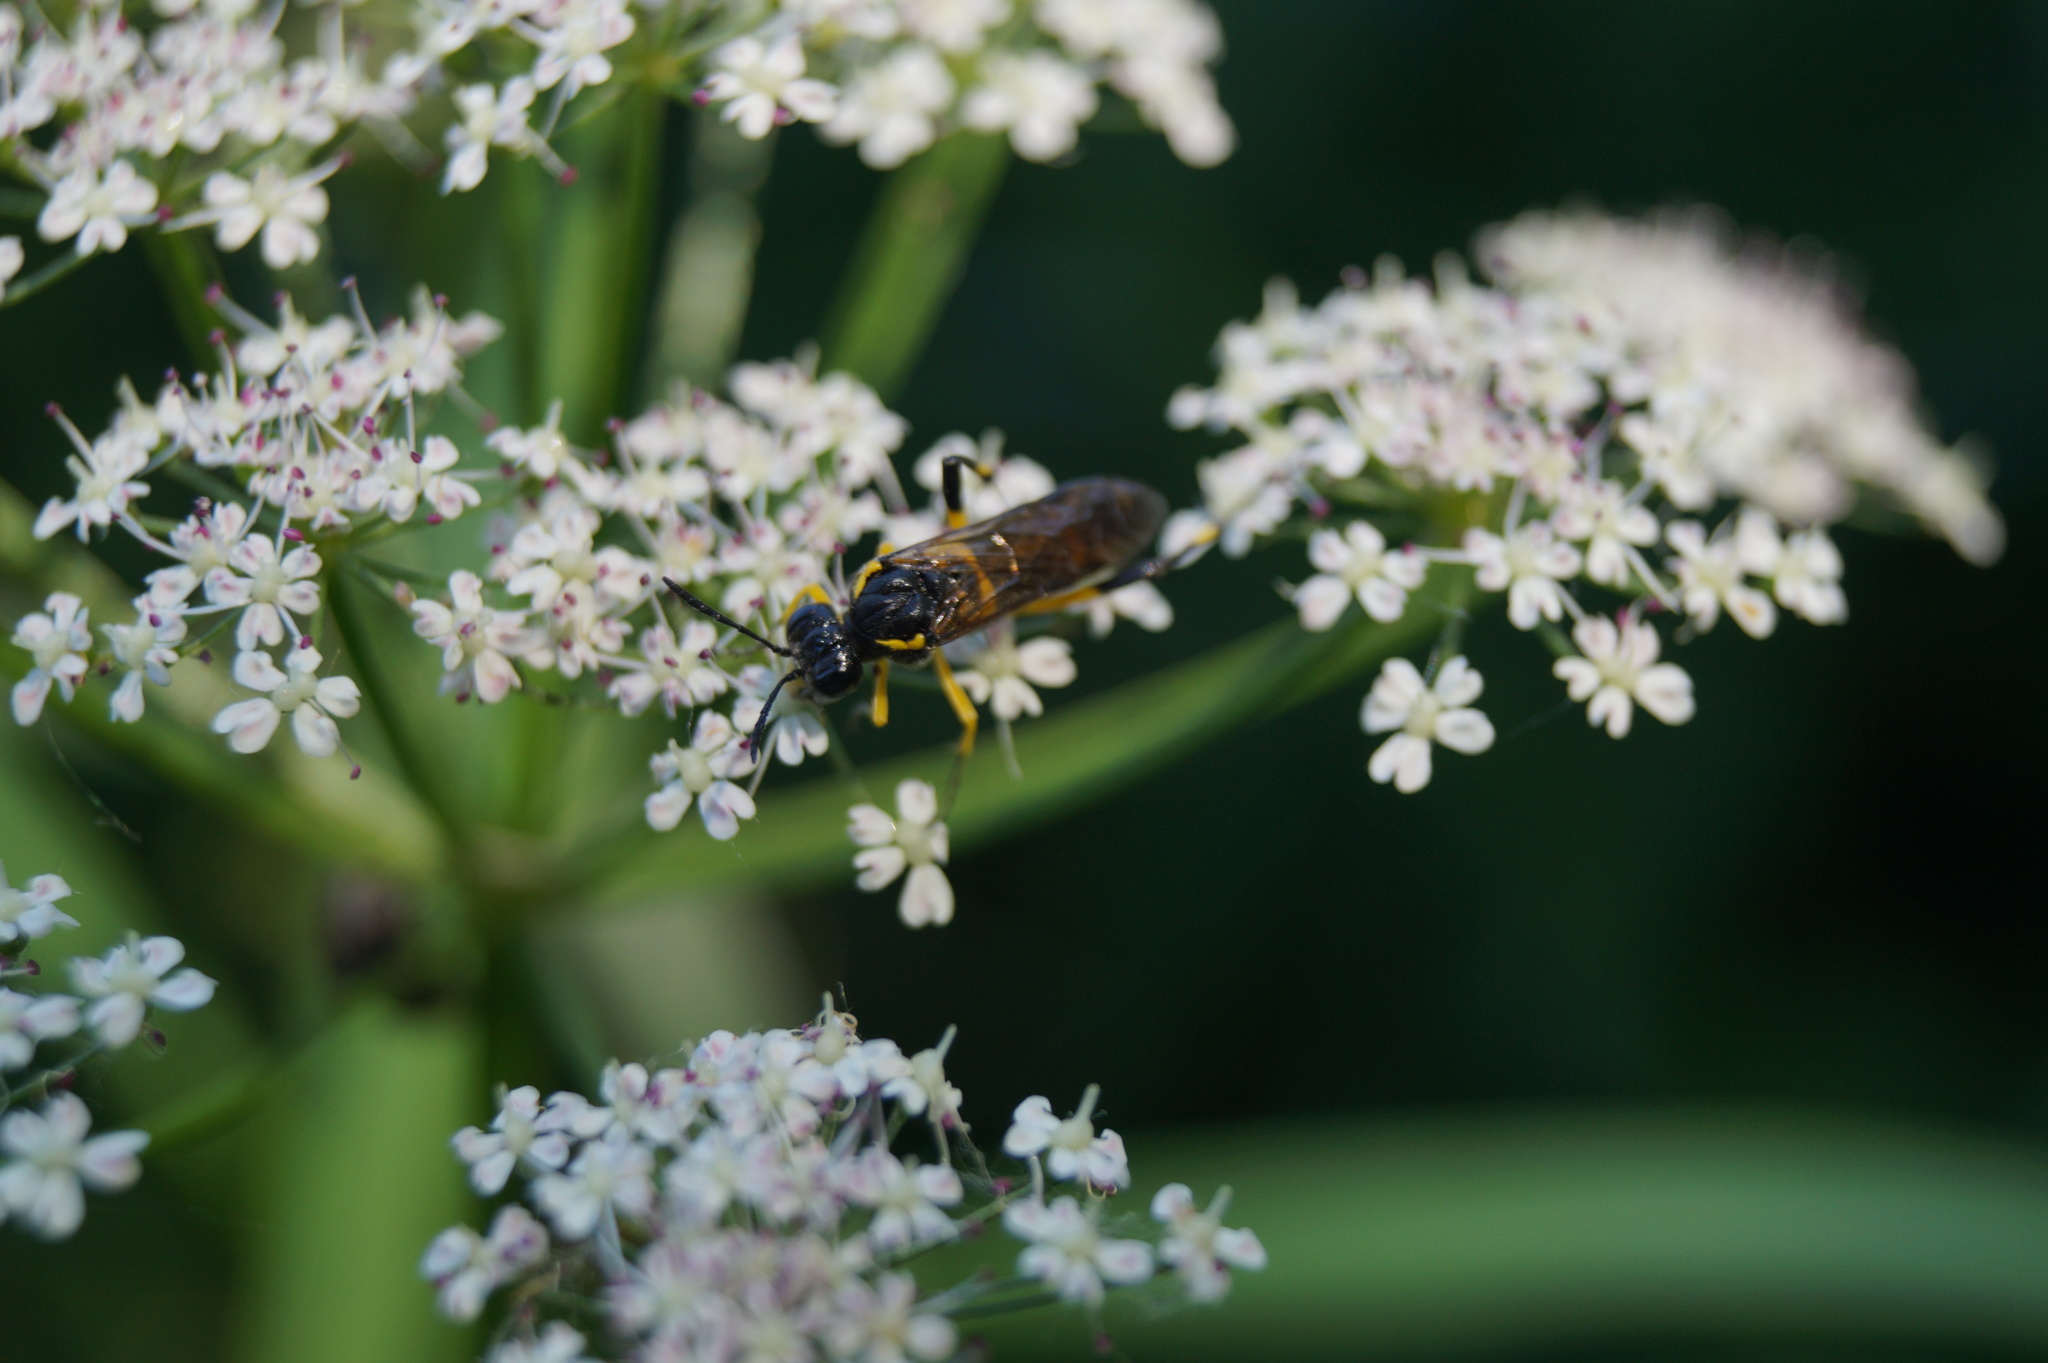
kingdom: Animalia
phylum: Arthropoda
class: Insecta
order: Hymenoptera
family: Tenthredinidae
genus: Macrophya
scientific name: Macrophya montana
